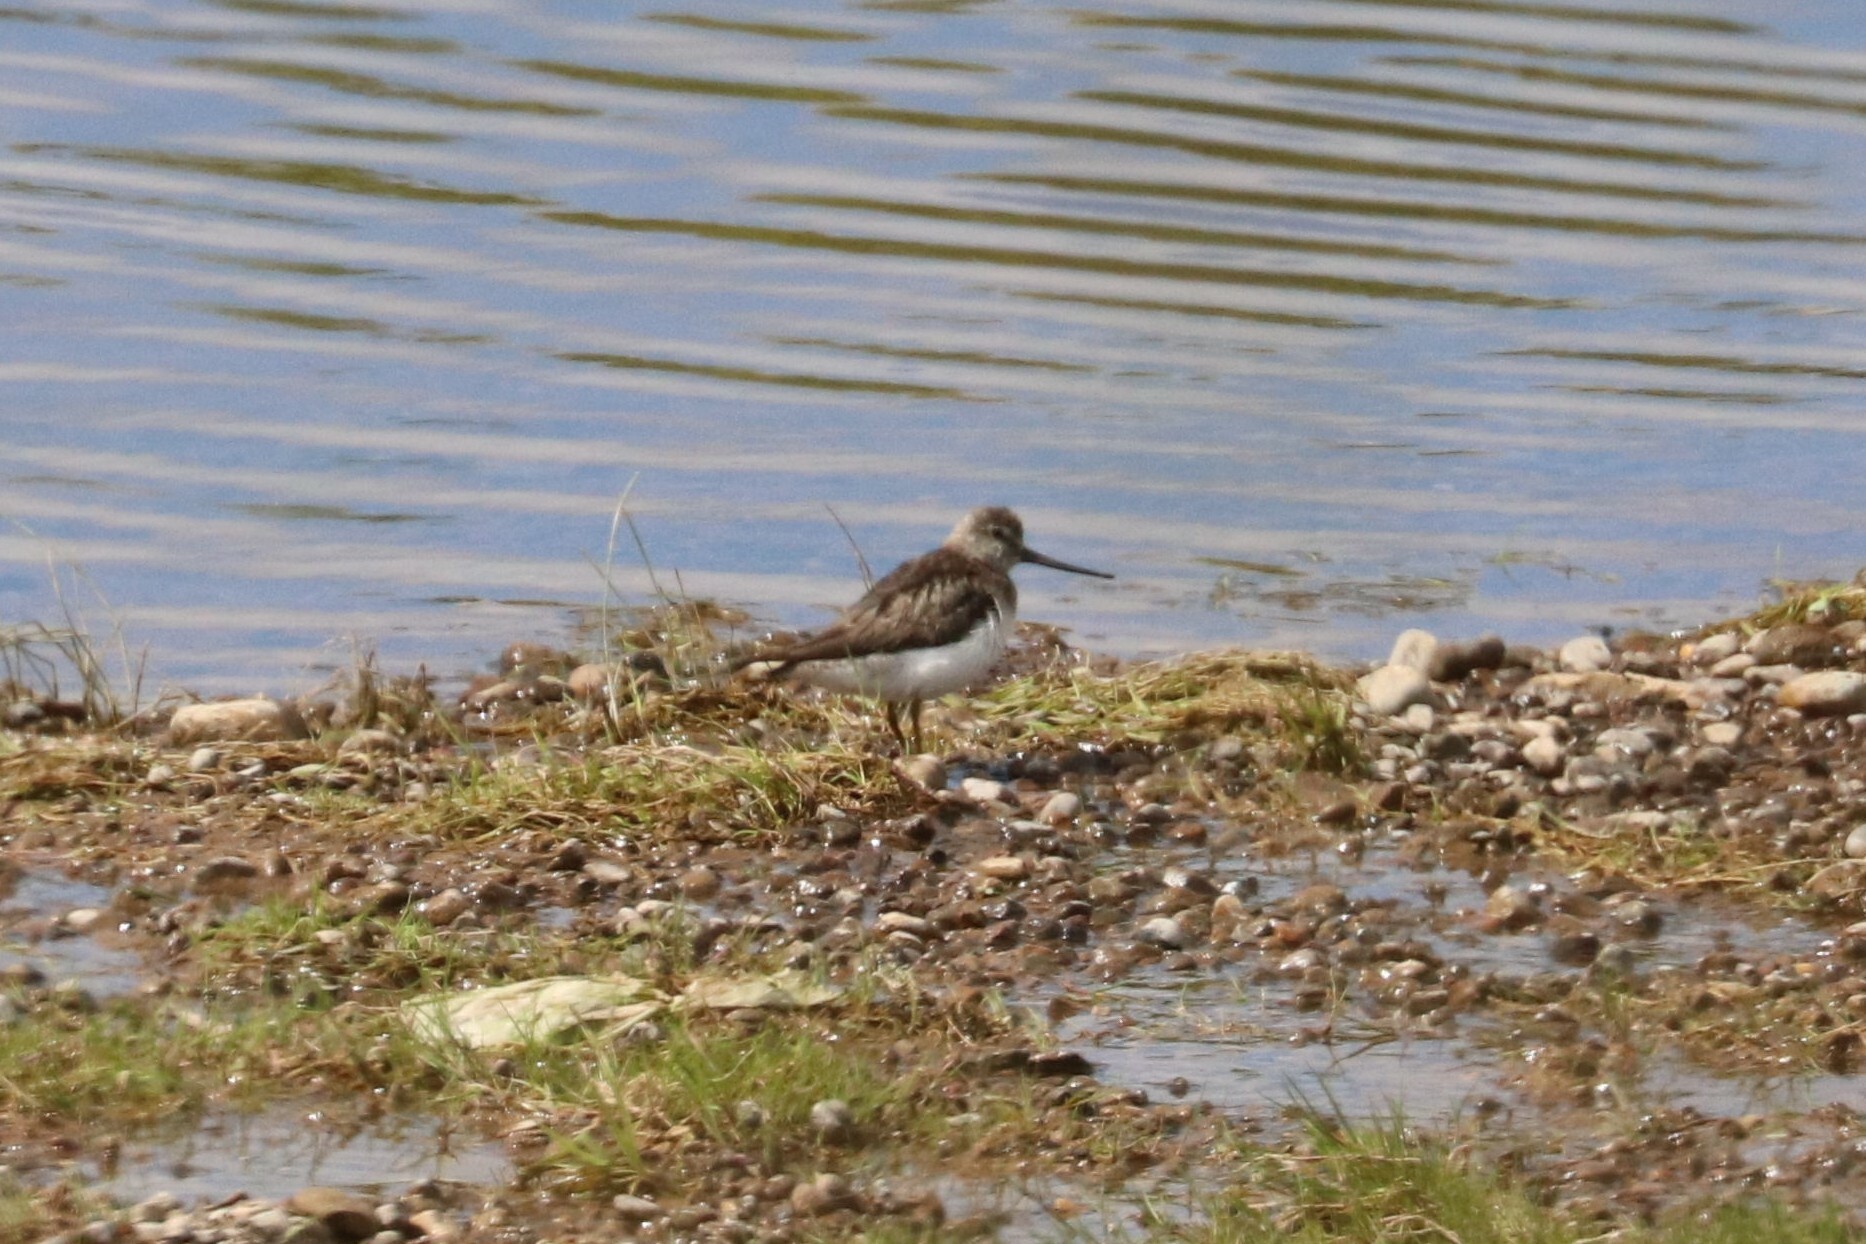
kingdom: Animalia
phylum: Chordata
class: Aves
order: Charadriiformes
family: Scolopacidae
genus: Xenus
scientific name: Xenus cinereus
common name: Terek sandpiper
